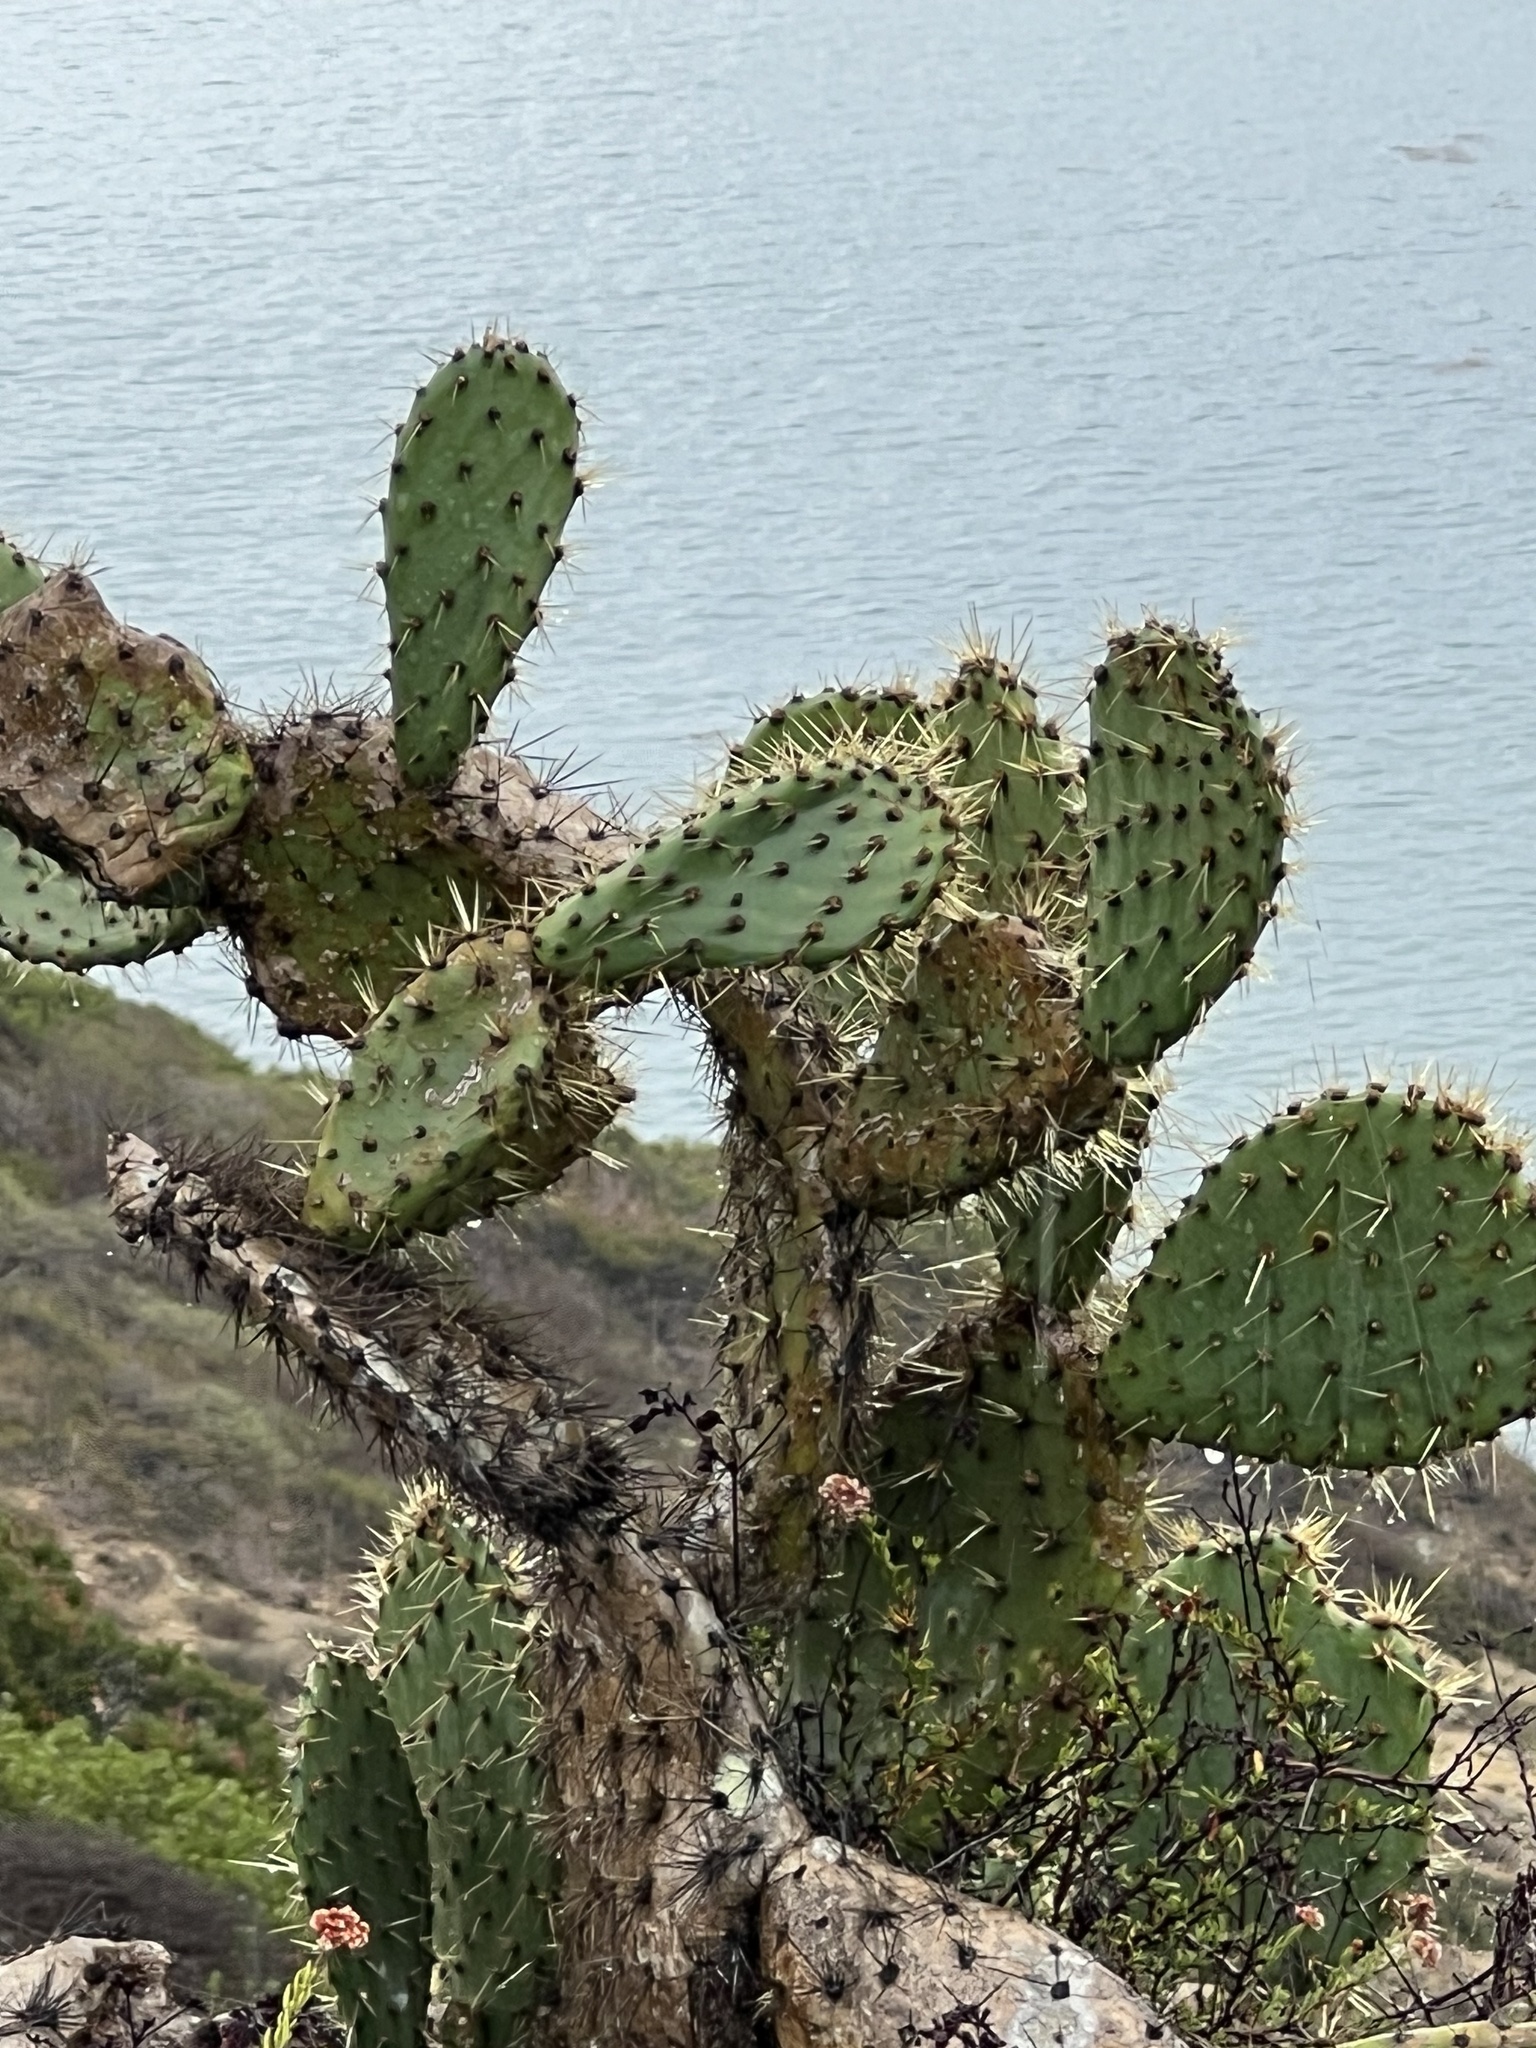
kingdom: Plantae
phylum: Tracheophyta
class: Magnoliopsida
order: Caryophyllales
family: Cactaceae
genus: Opuntia
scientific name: Opuntia oricola
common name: Chaparral prickly-pear
